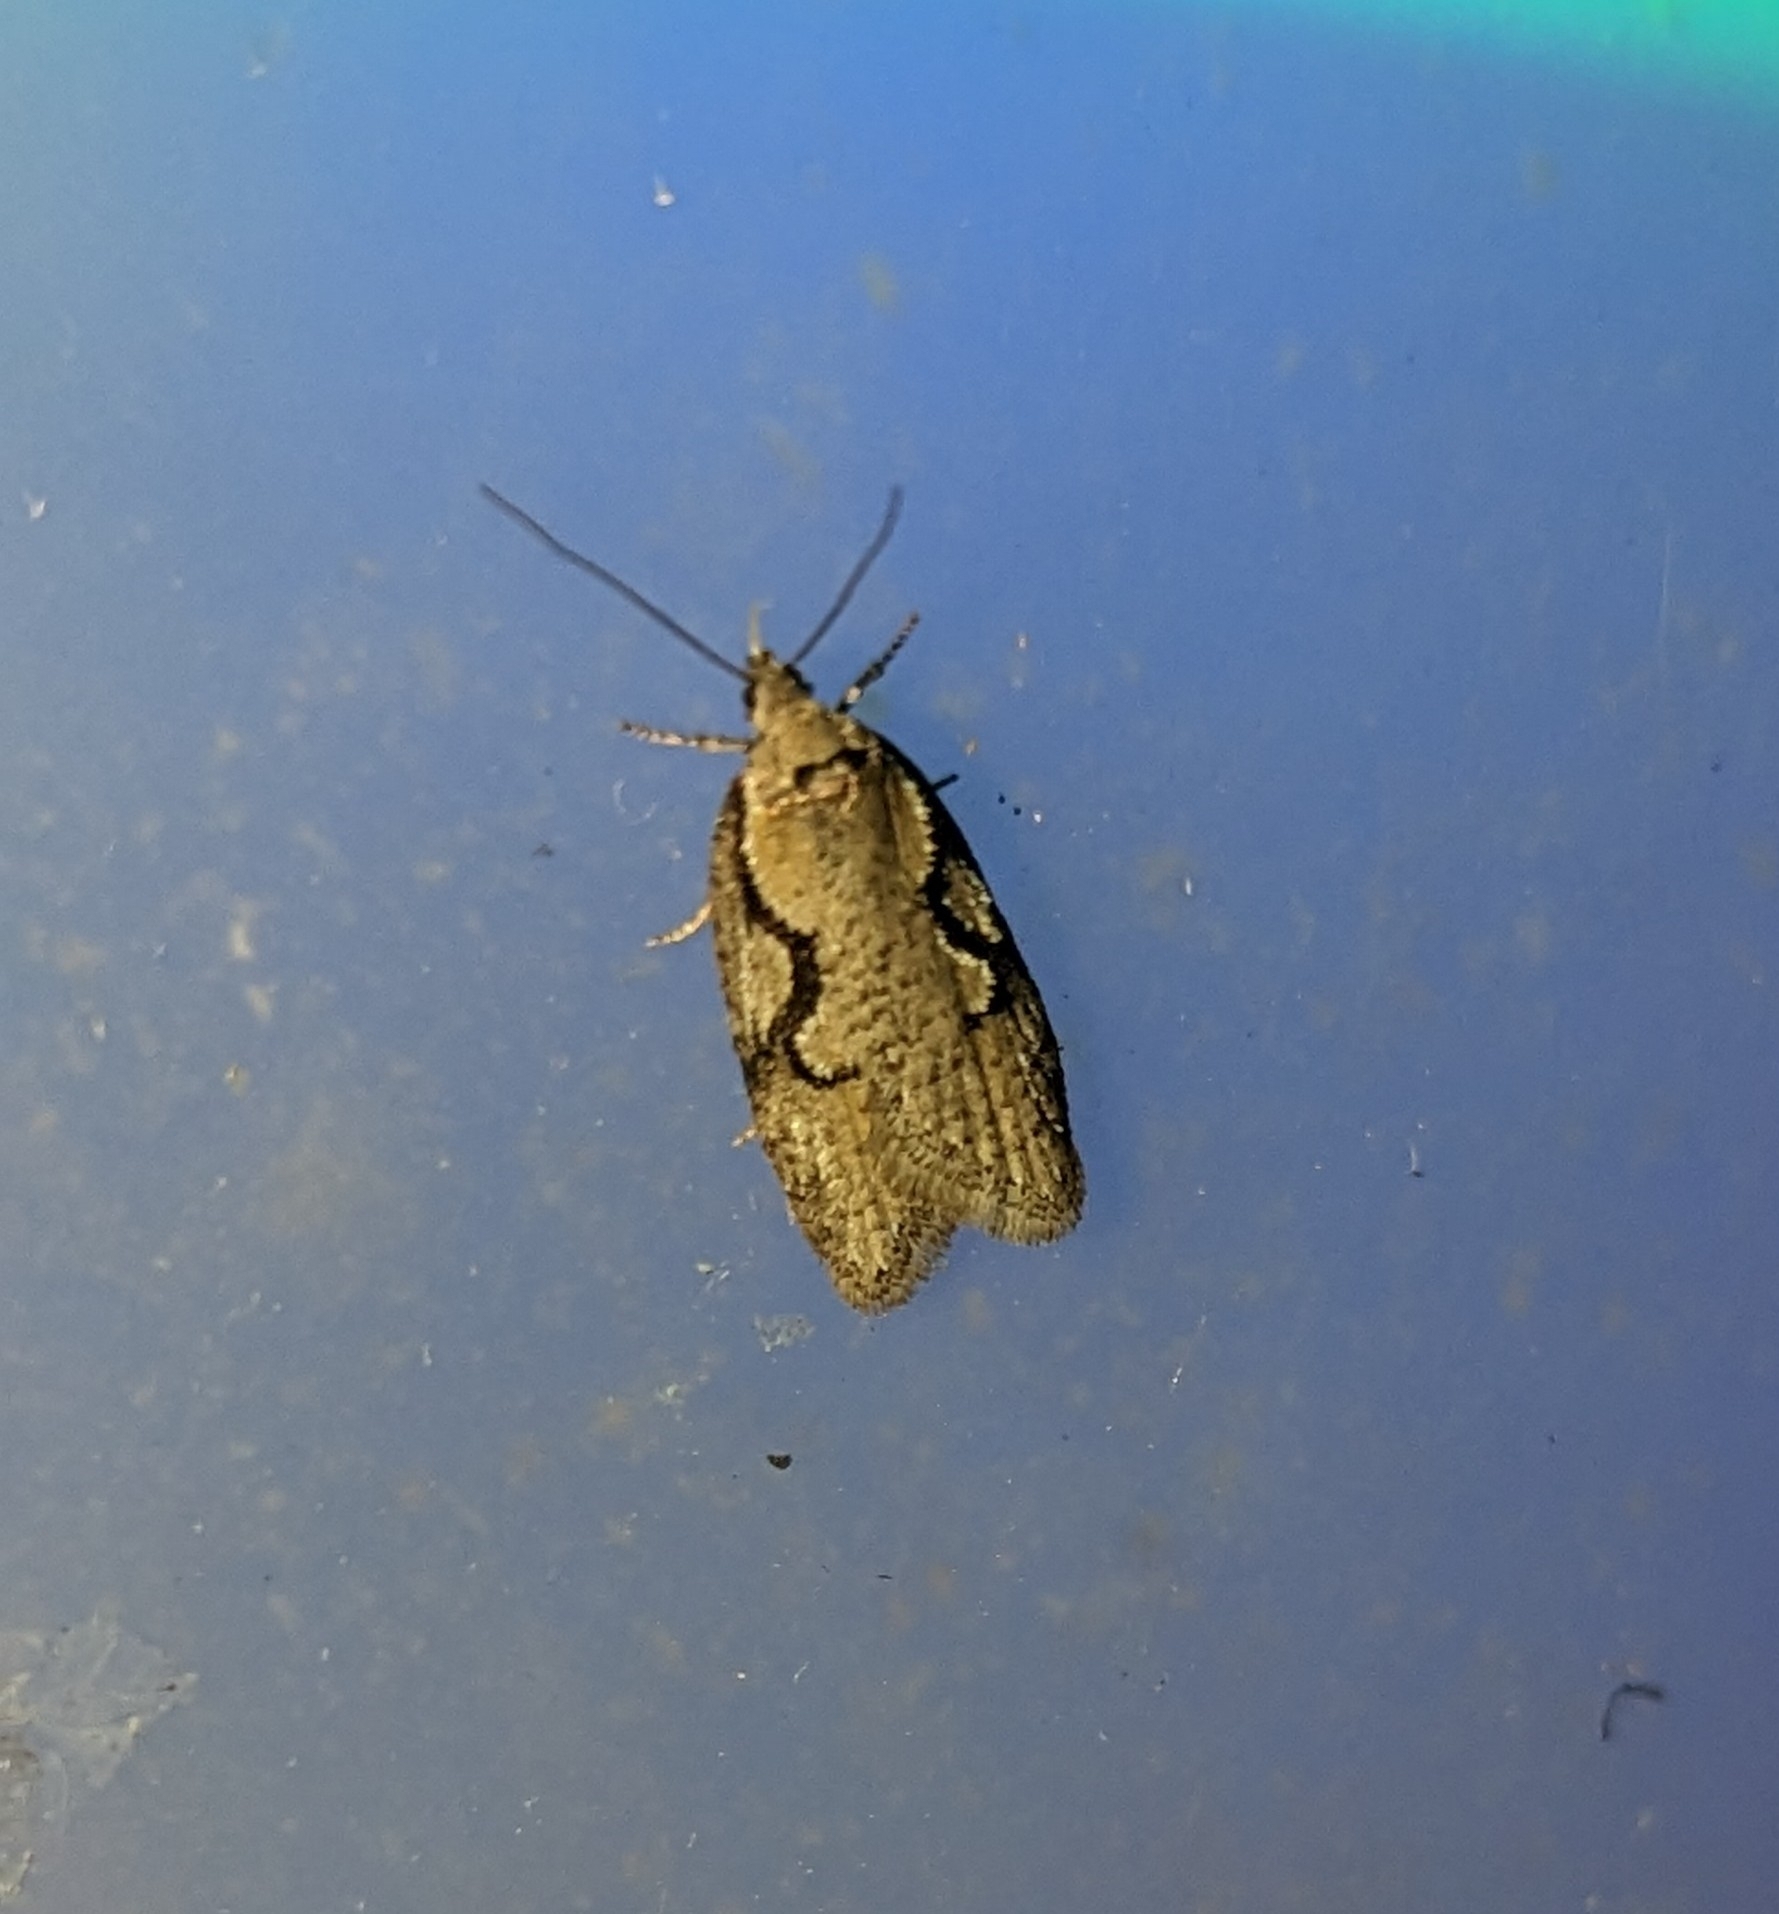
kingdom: Animalia
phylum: Arthropoda
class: Insecta
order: Lepidoptera
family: Depressariidae
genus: Semioscopis
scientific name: Semioscopis packardella
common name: Packard's concealer moth
